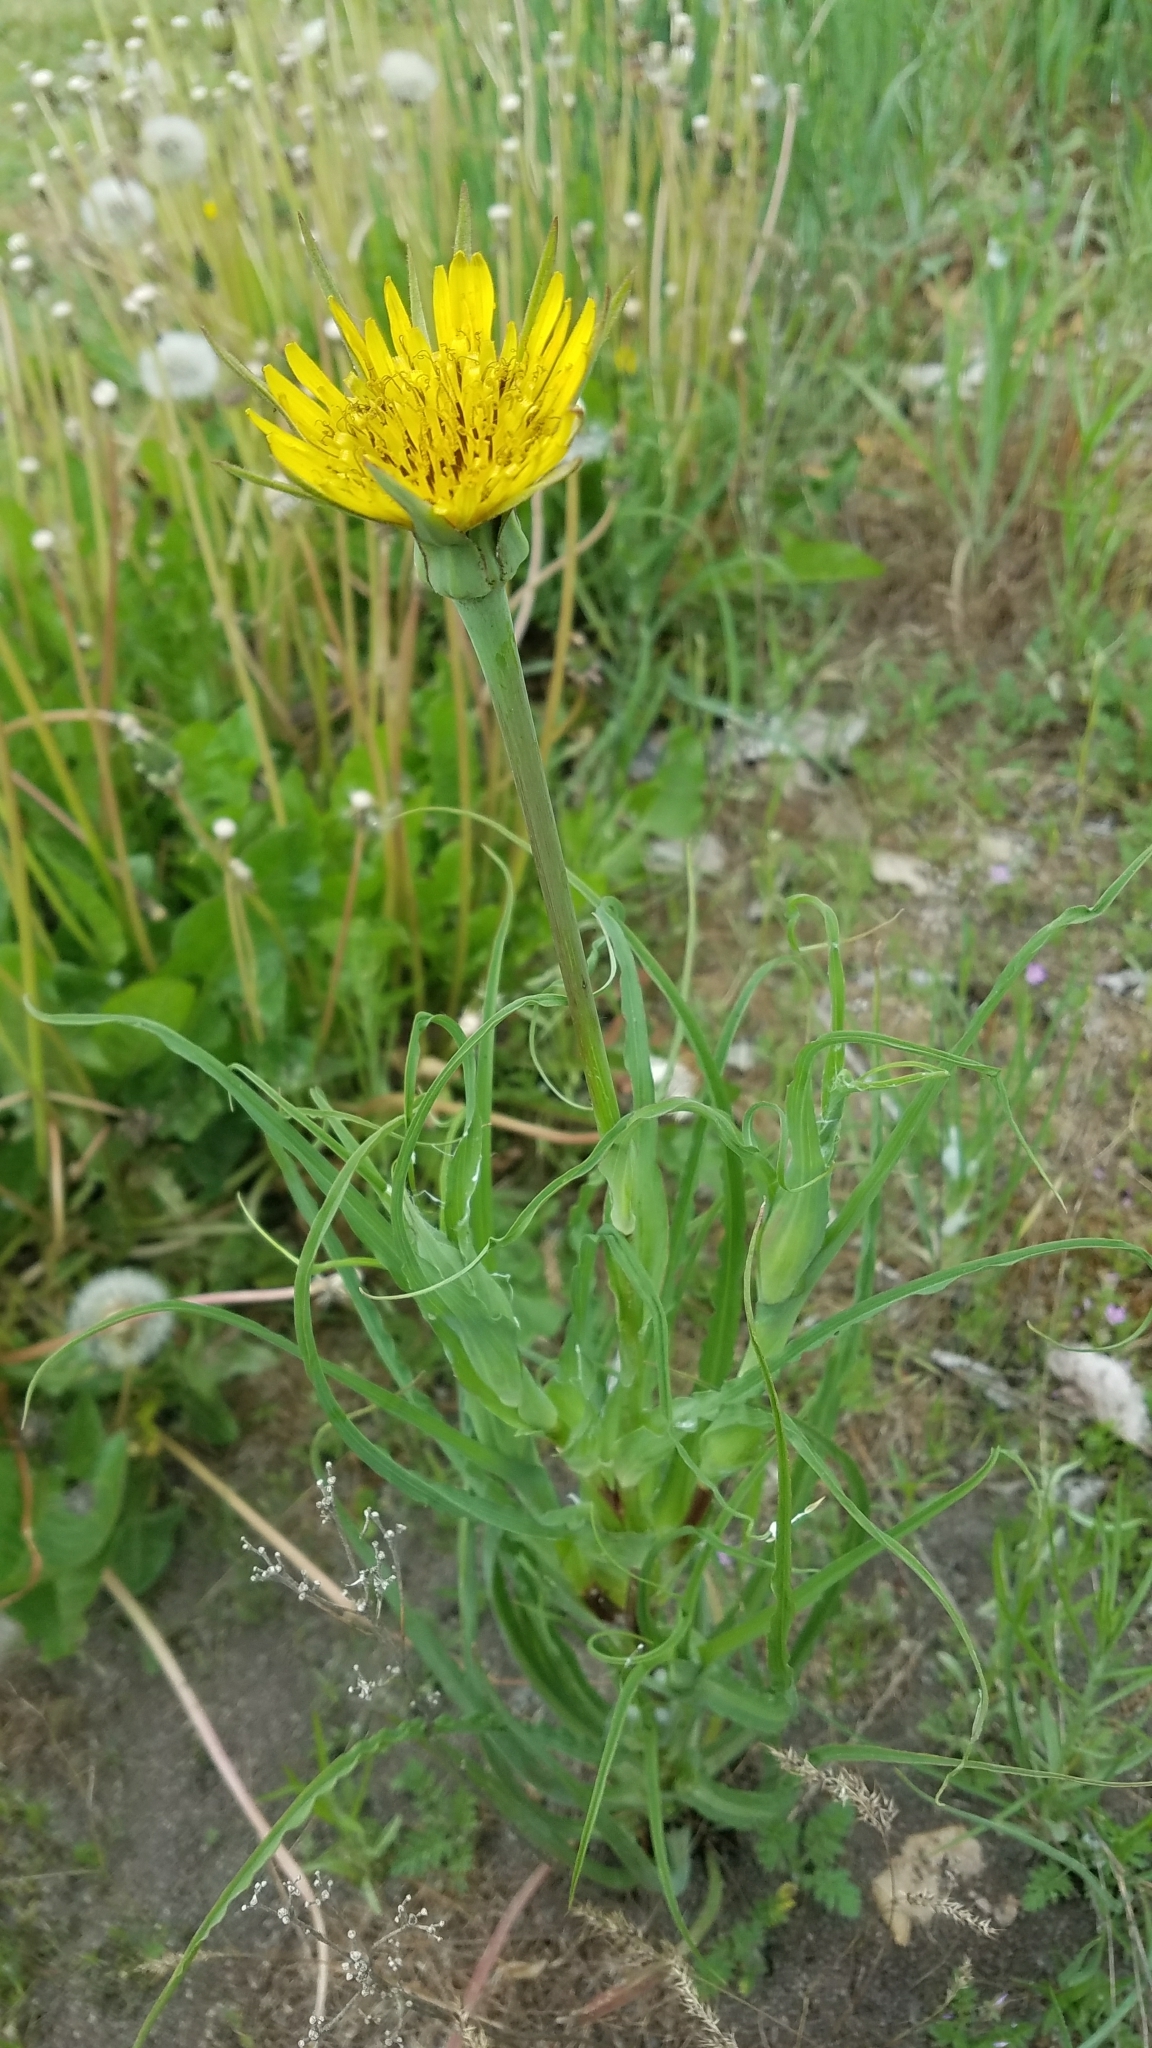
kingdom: Plantae
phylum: Tracheophyta
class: Magnoliopsida
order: Asterales
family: Asteraceae
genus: Tragopogon
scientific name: Tragopogon dubius
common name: Yellow salsify
